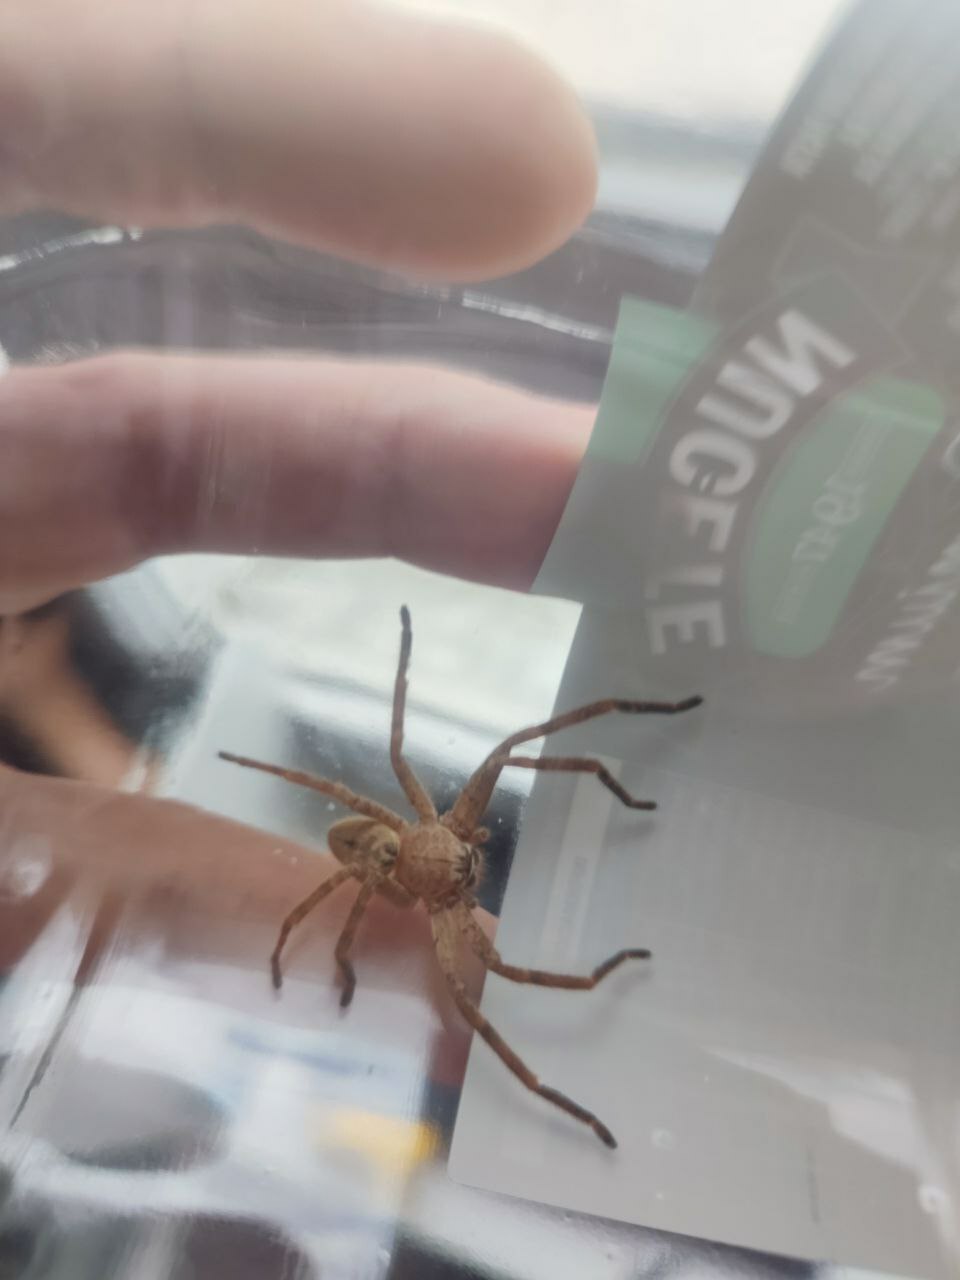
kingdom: Animalia
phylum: Arthropoda
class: Arachnida
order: Araneae
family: Sparassidae
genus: Polybetes
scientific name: Polybetes rapidus
